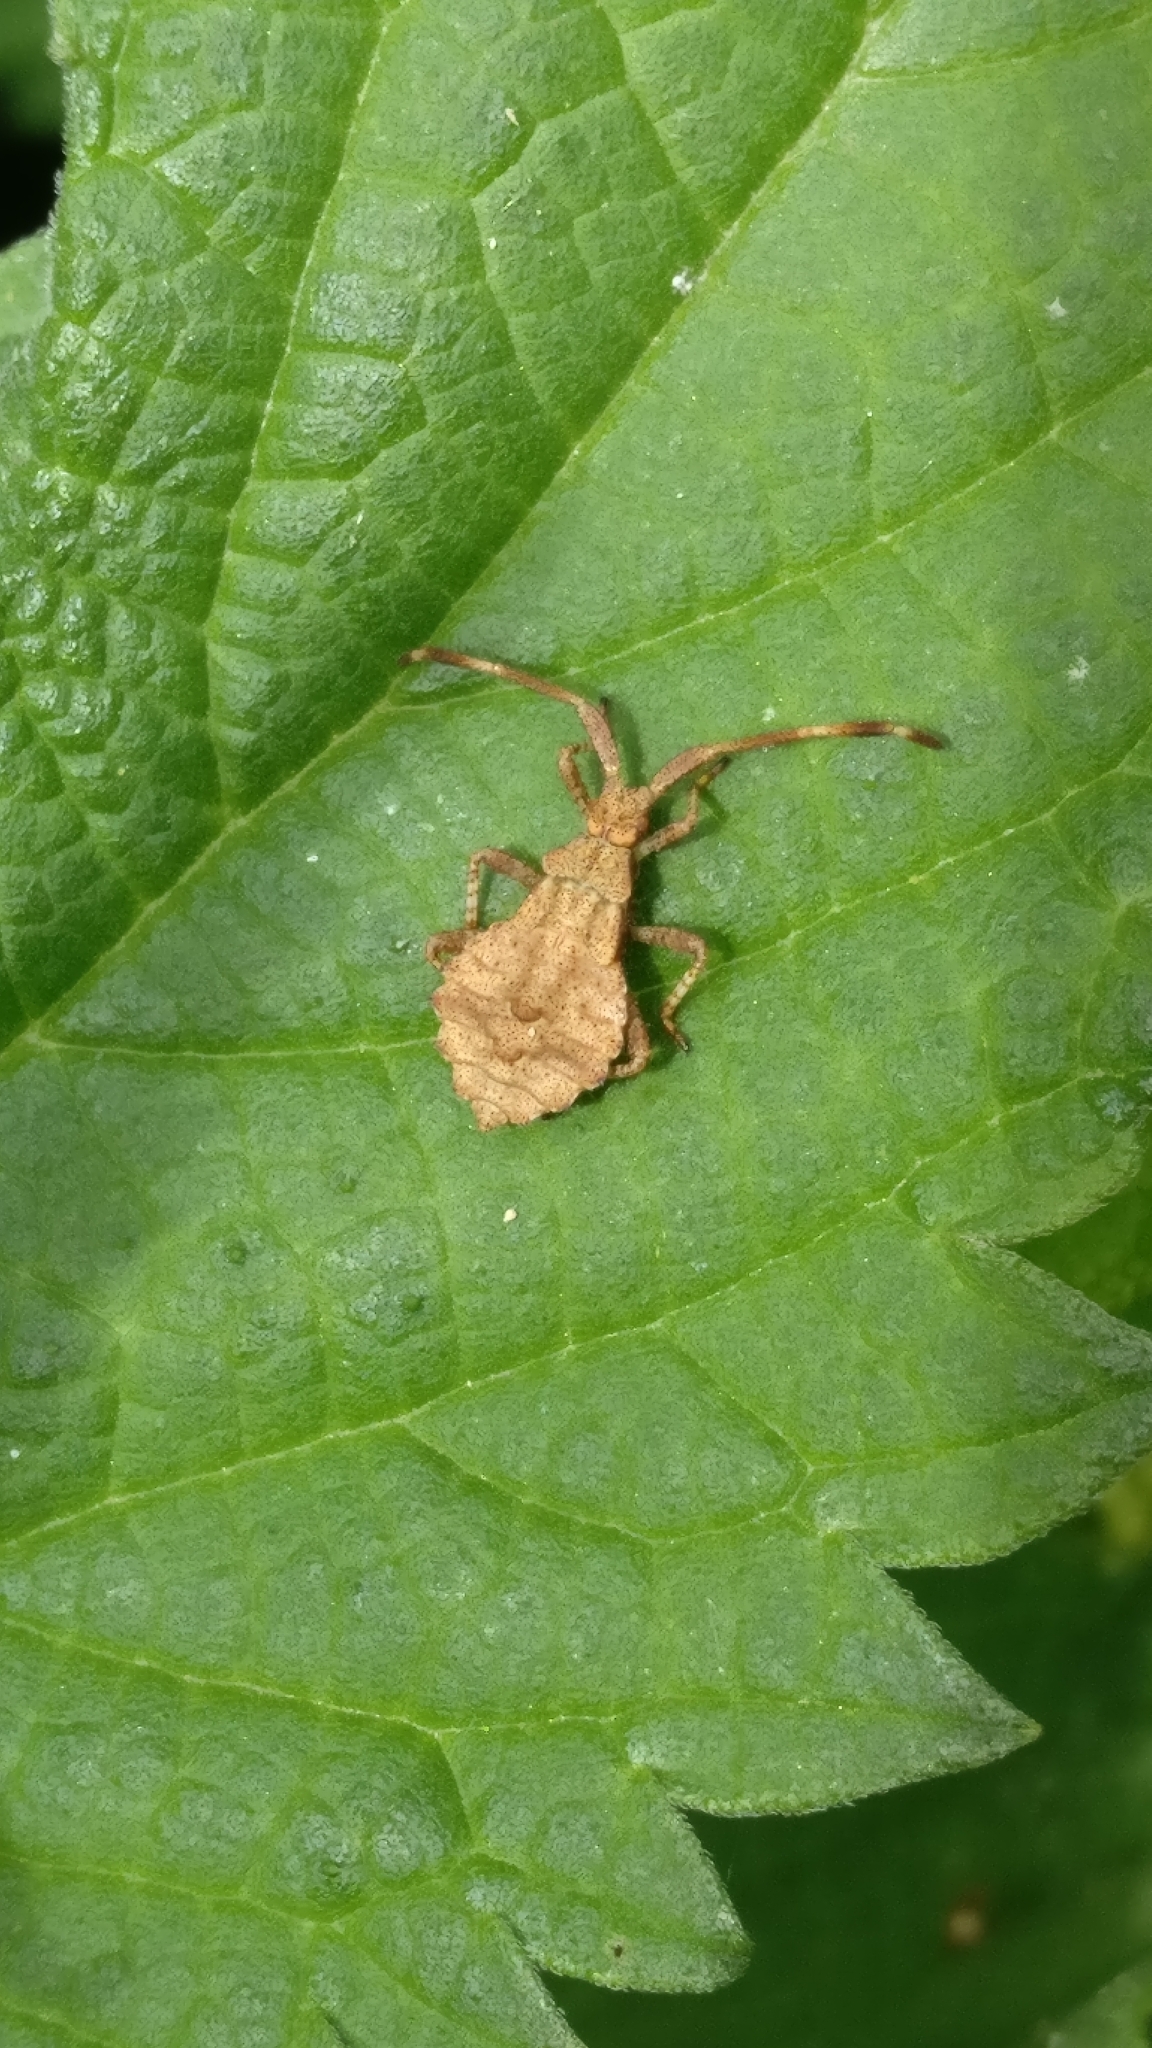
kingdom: Animalia
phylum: Arthropoda
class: Insecta
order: Hemiptera
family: Coreidae
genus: Coreus
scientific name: Coreus marginatus
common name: Dock bug
